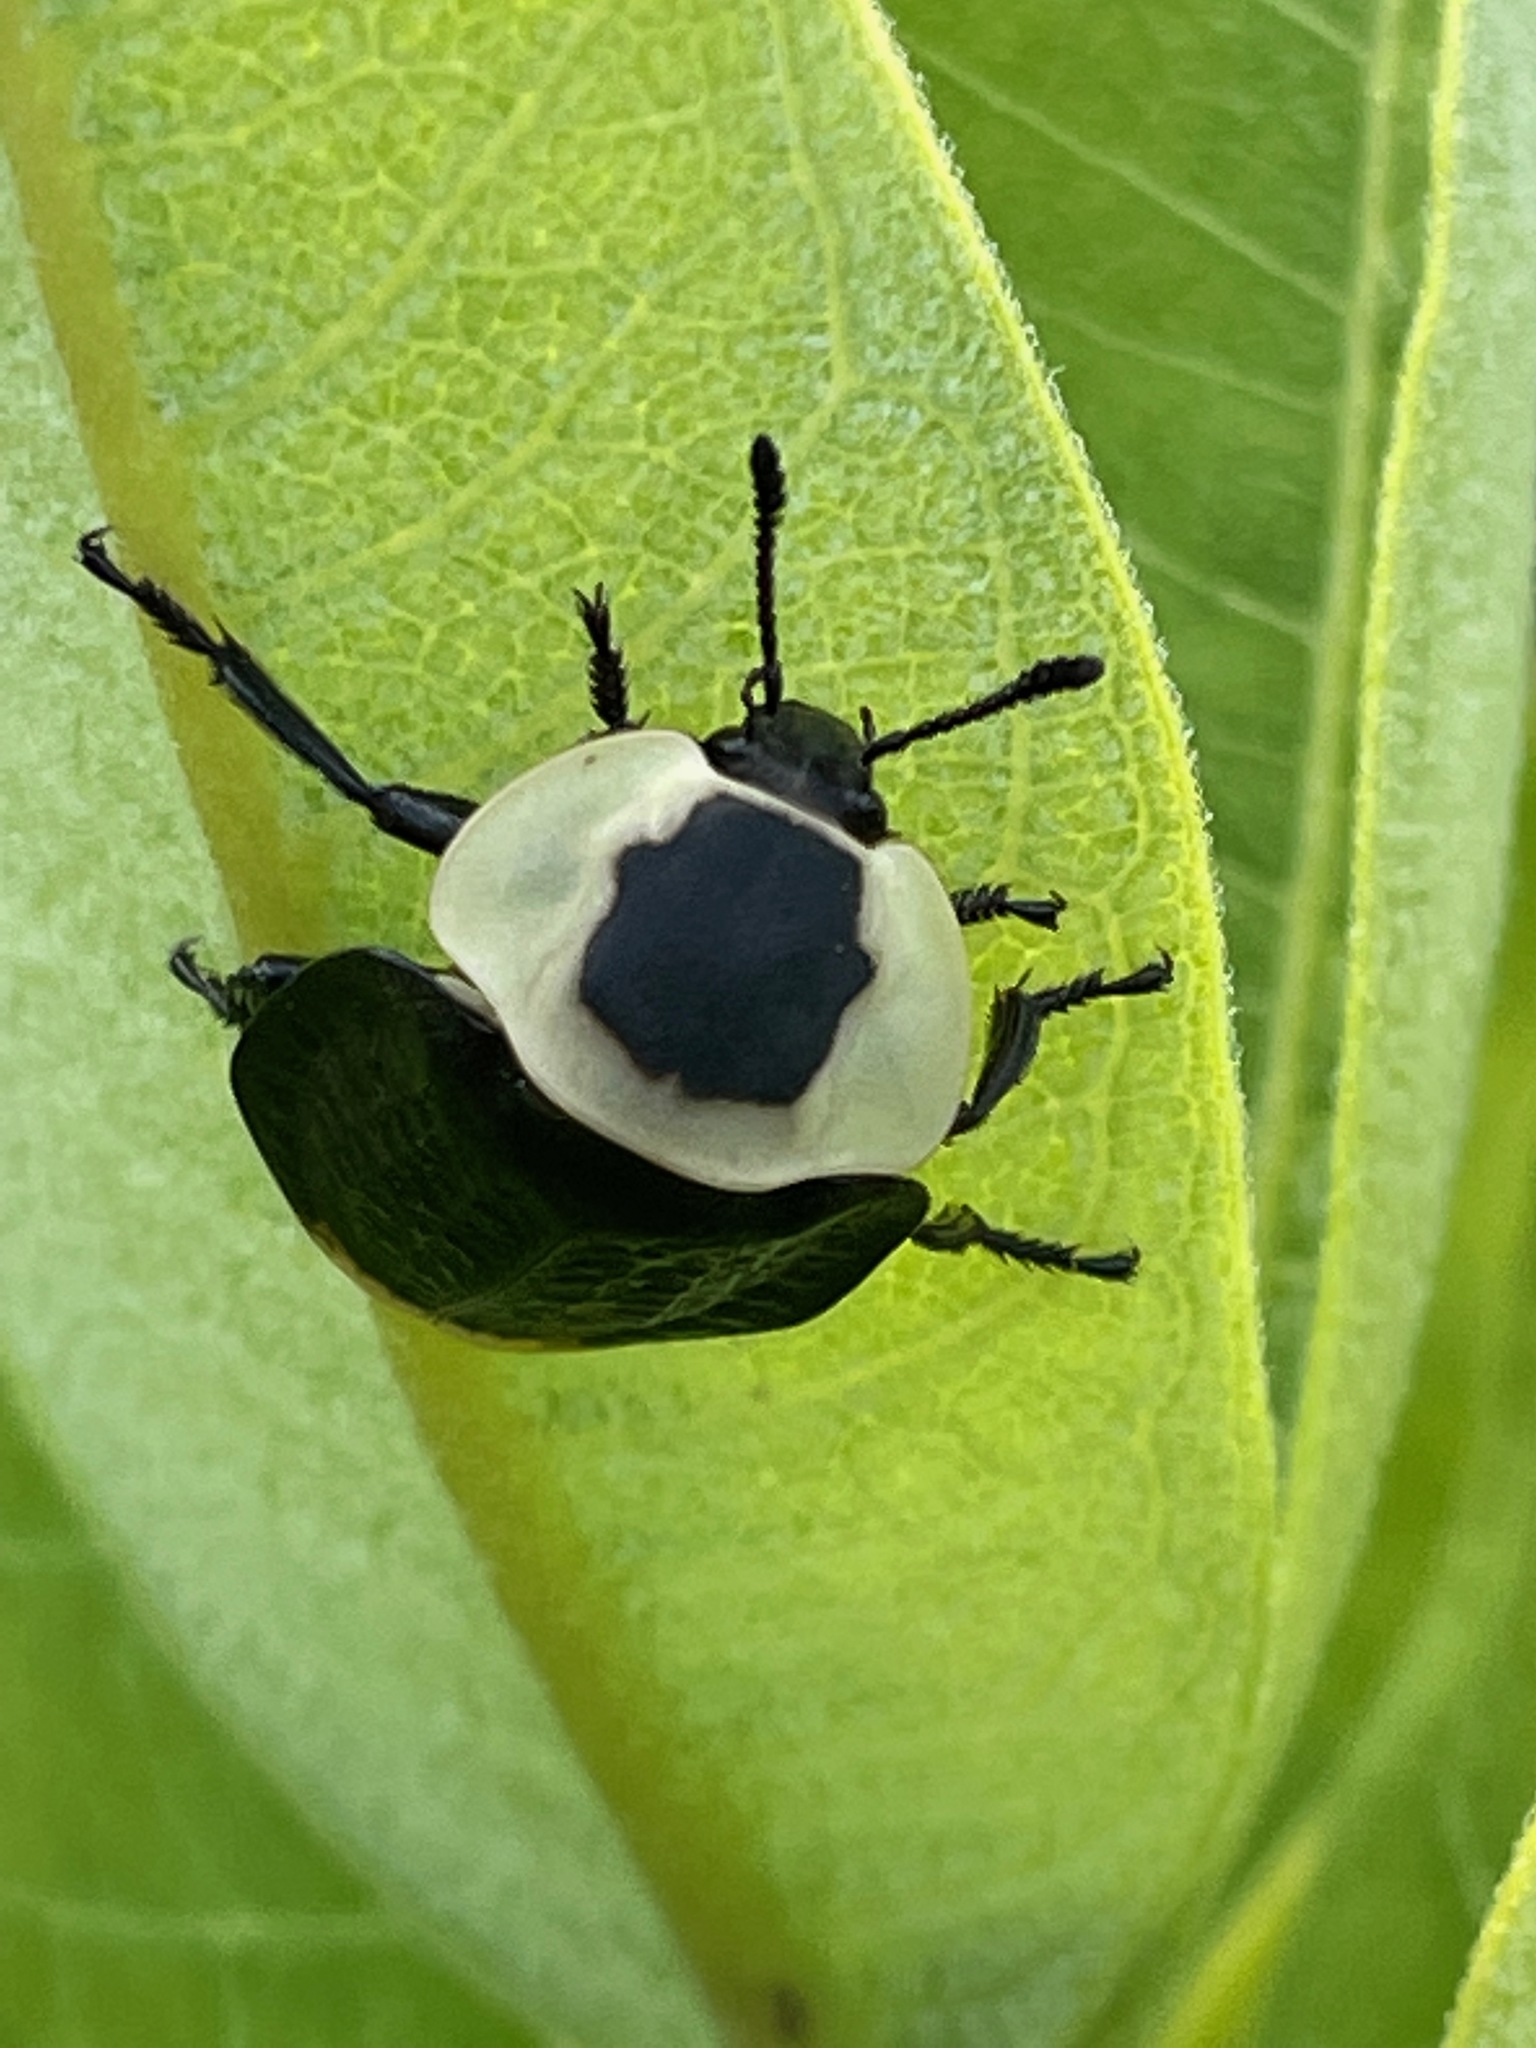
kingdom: Animalia
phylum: Arthropoda
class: Insecta
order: Coleoptera
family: Staphylinidae
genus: Necrophila
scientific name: Necrophila americana
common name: American carrion beetle
